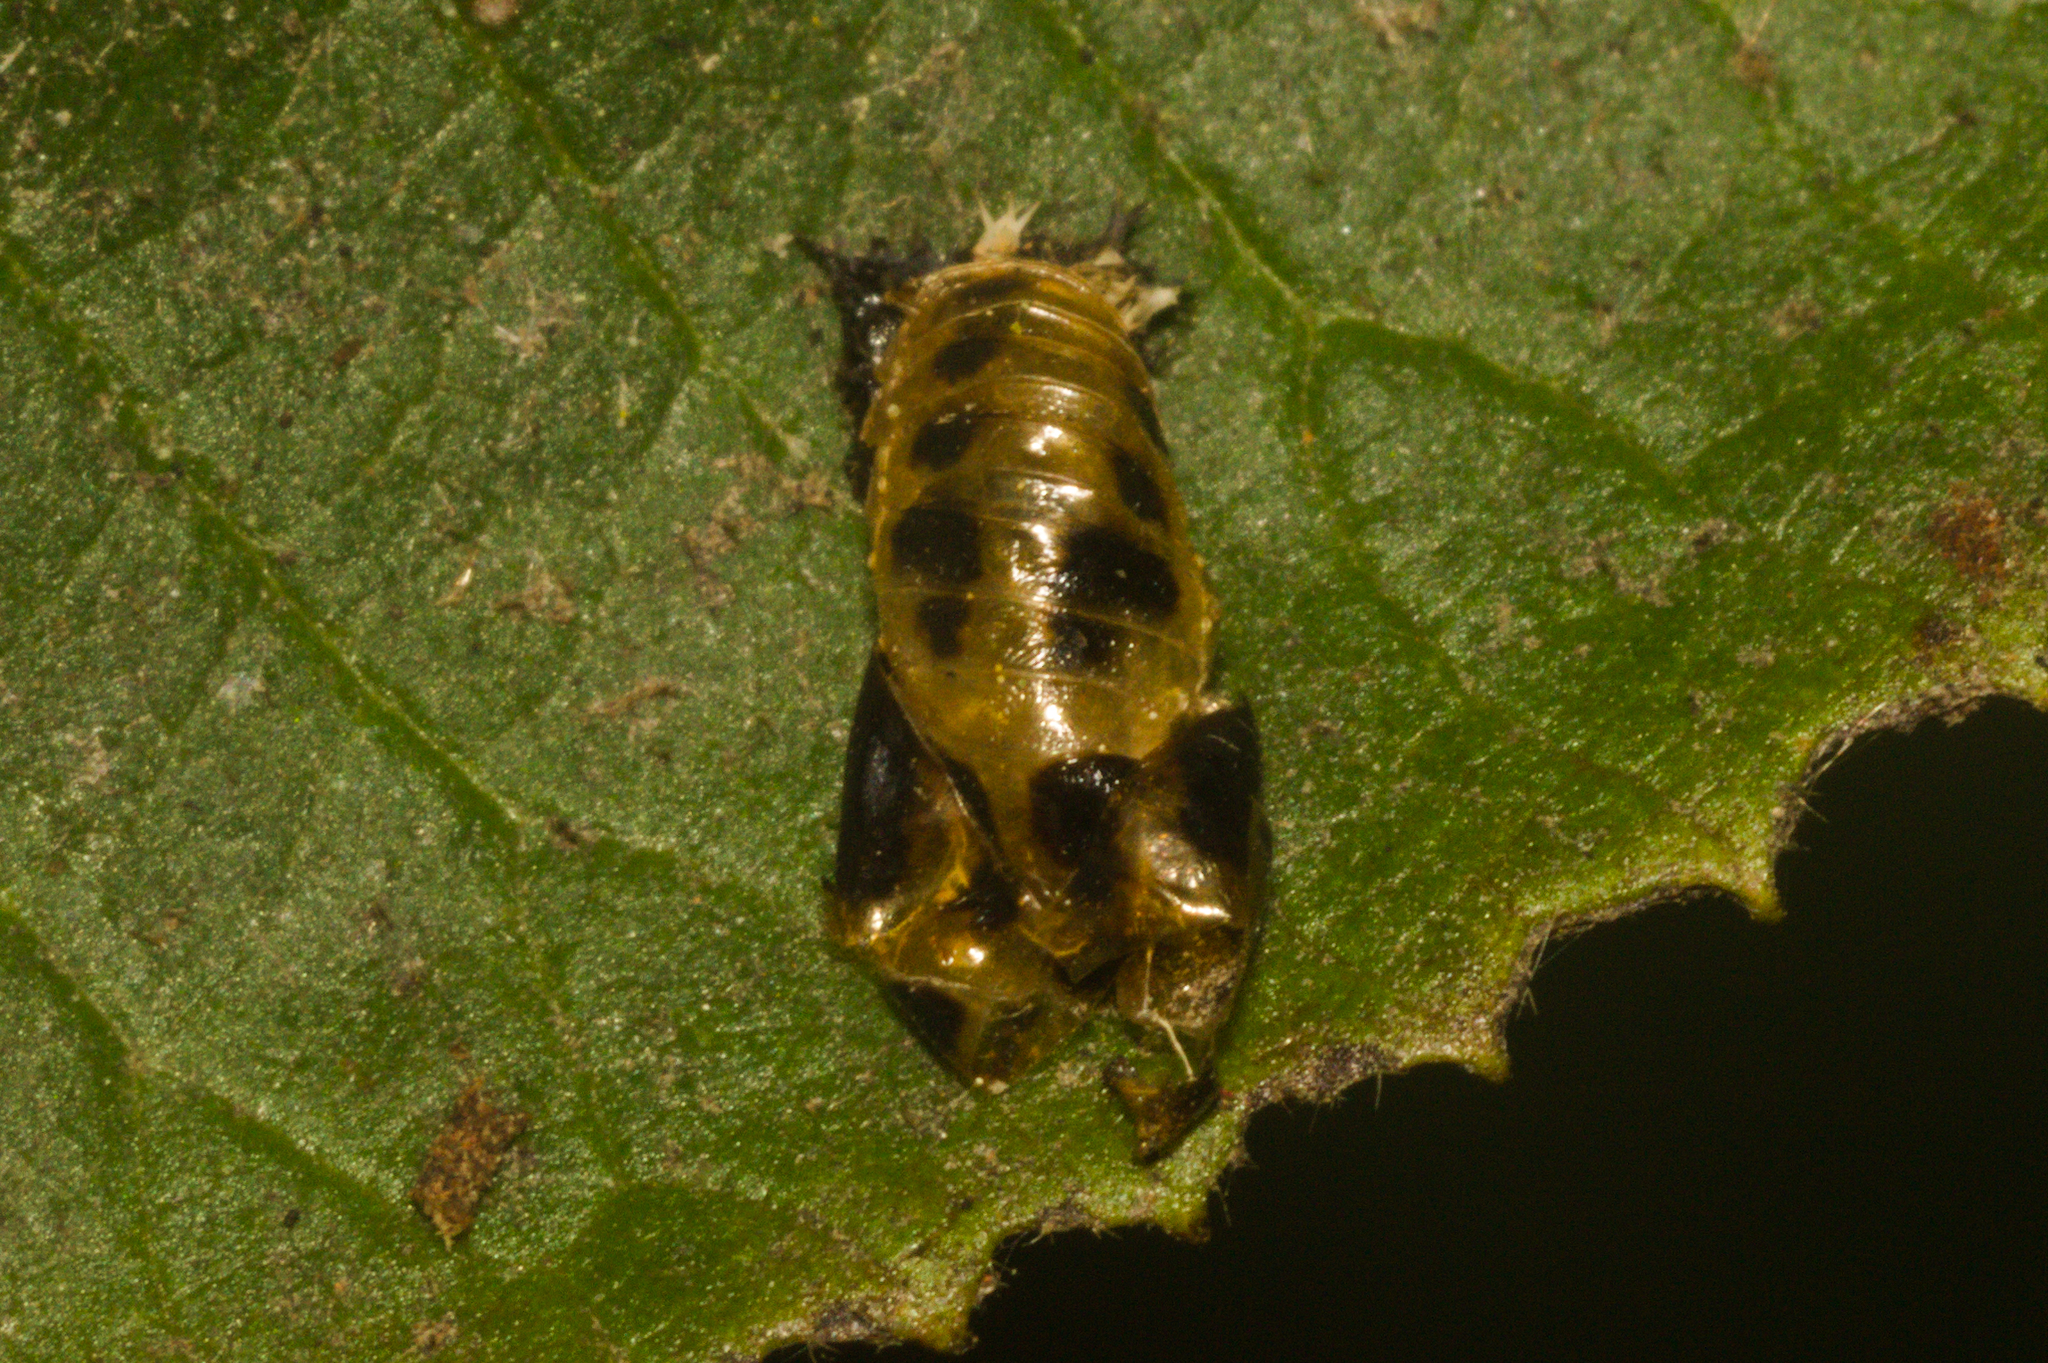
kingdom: Animalia
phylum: Arthropoda
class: Insecta
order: Coleoptera
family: Coccinellidae
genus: Harmonia
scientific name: Harmonia axyridis
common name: Harlequin ladybird
